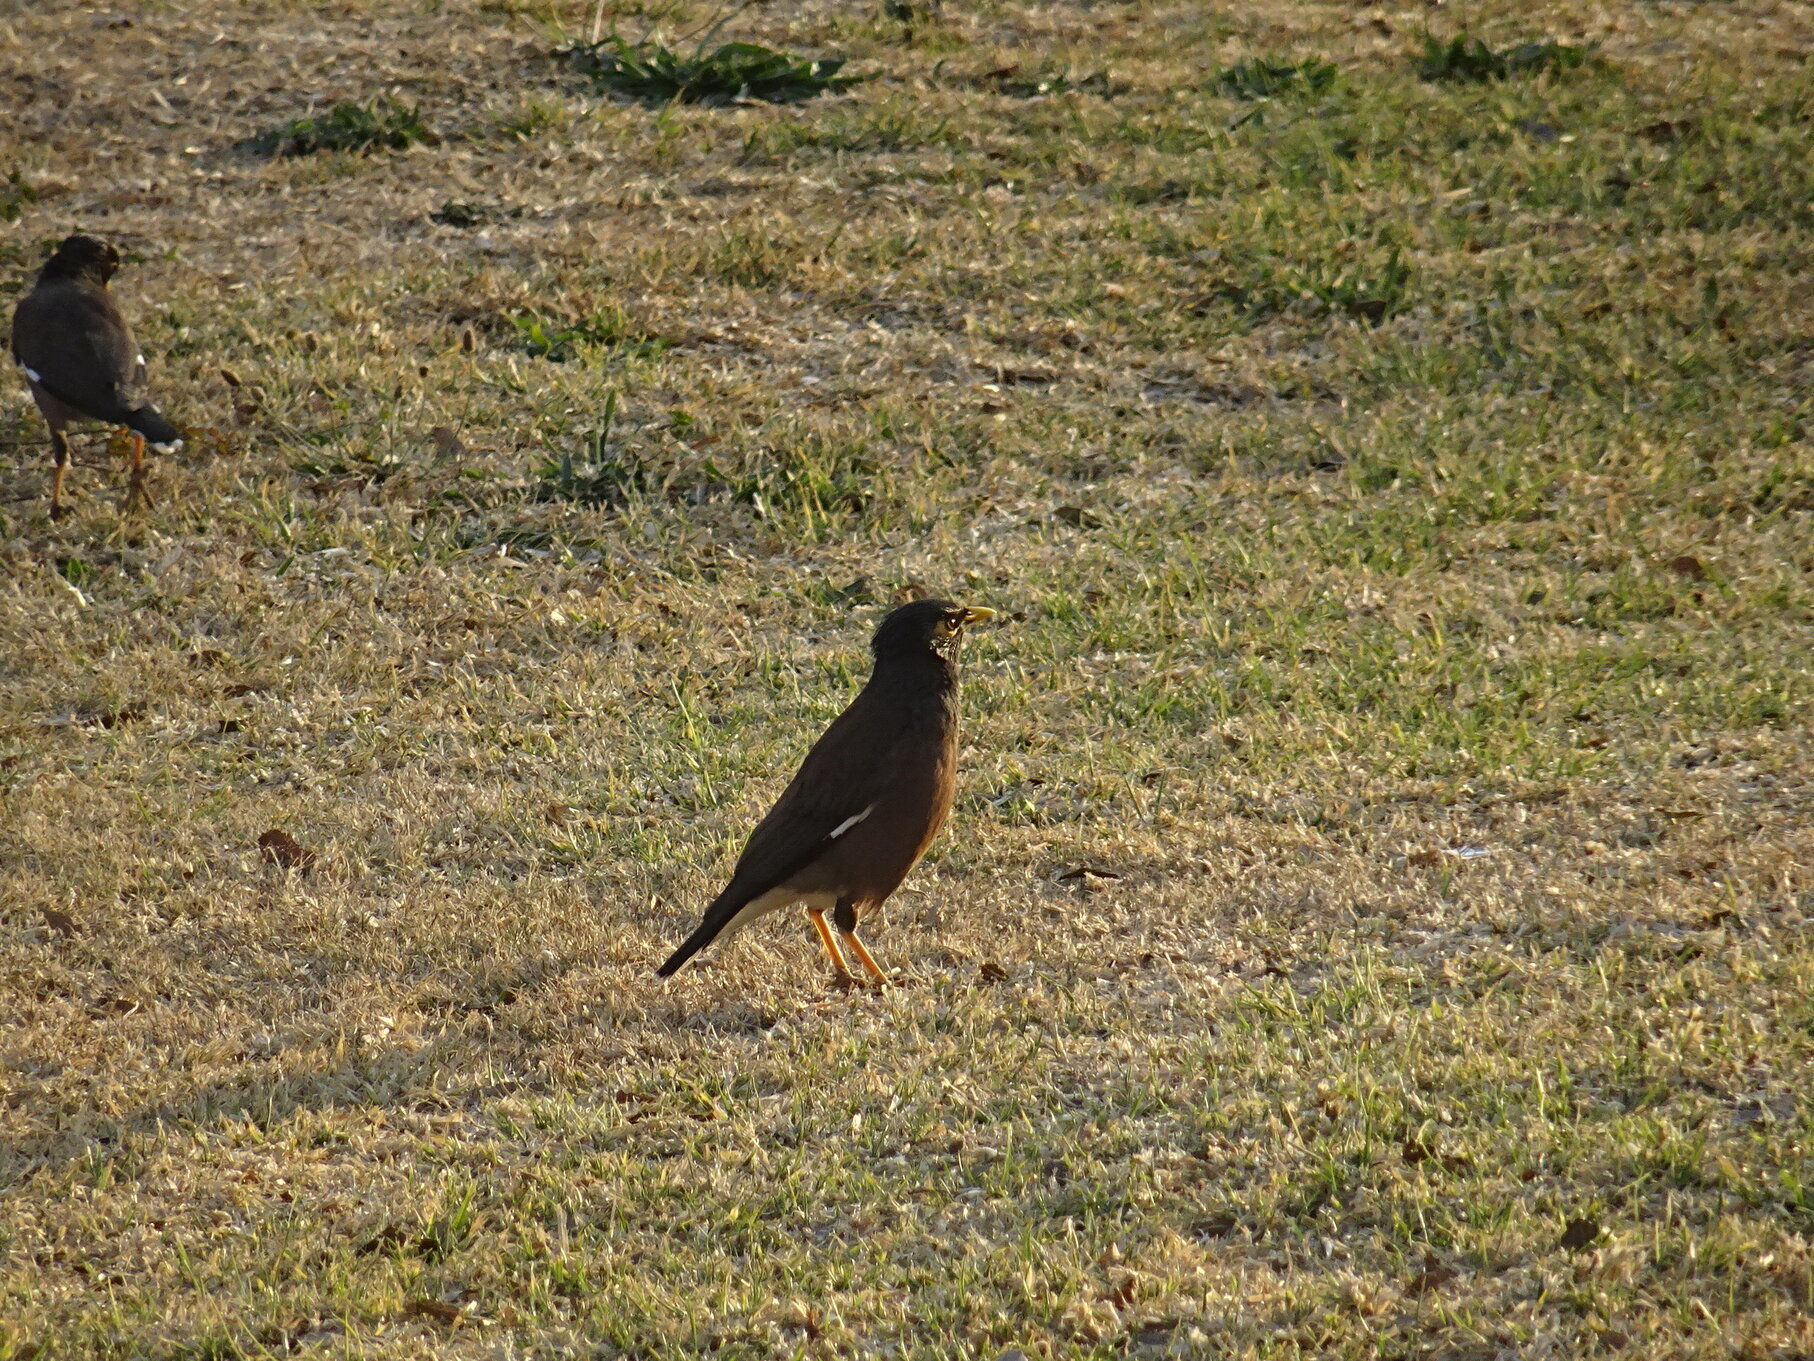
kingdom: Animalia
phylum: Chordata
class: Aves
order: Passeriformes
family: Sturnidae
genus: Acridotheres
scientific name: Acridotheres tristis
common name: Common myna
